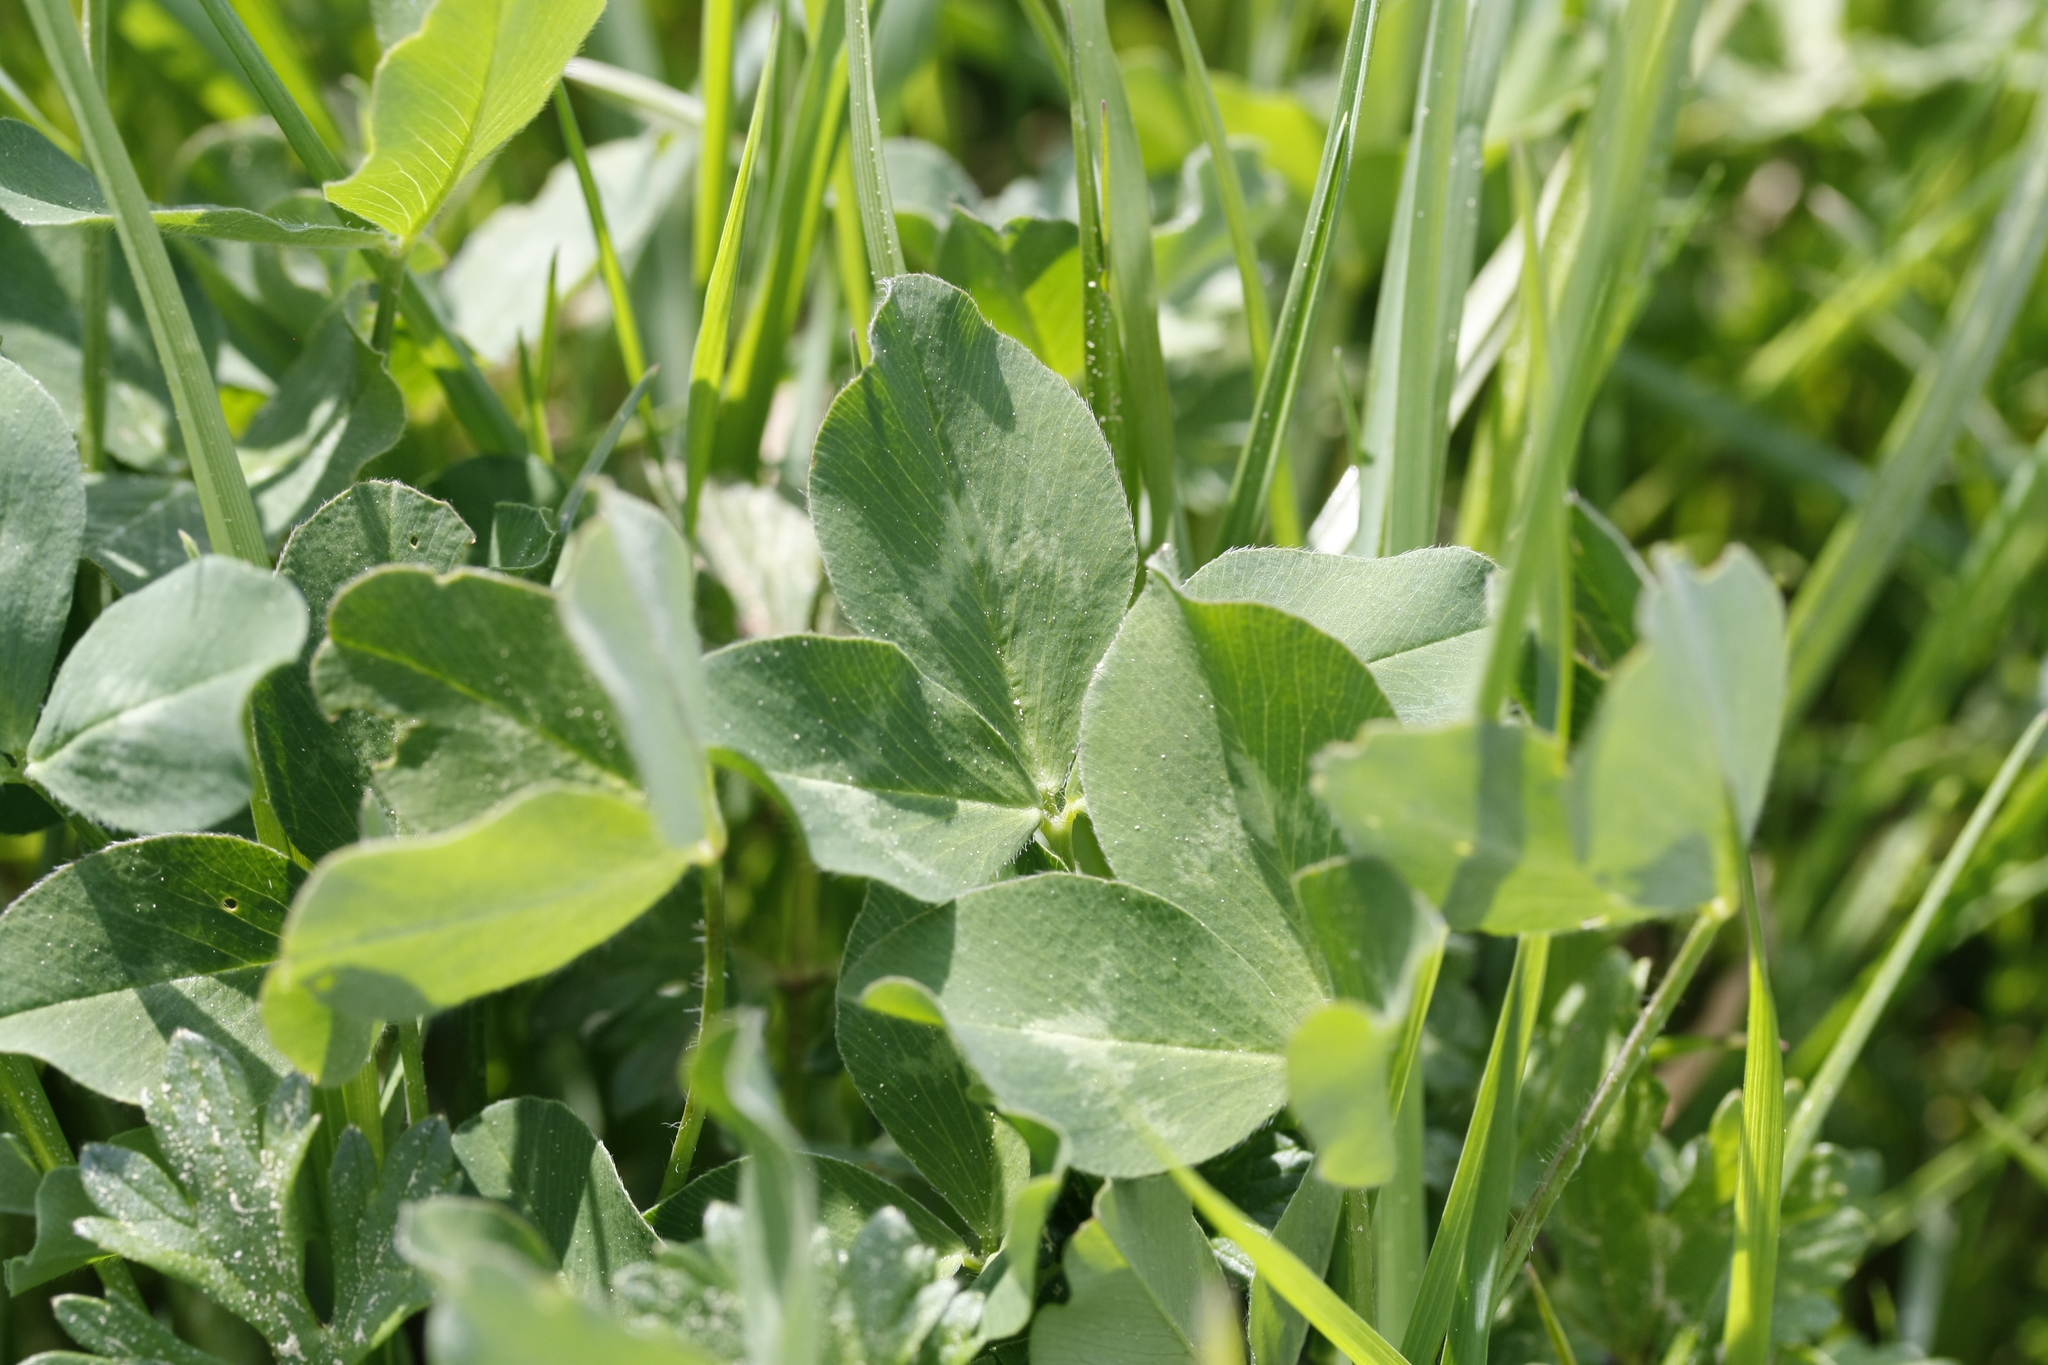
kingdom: Plantae
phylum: Tracheophyta
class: Magnoliopsida
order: Fabales
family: Fabaceae
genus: Trifolium
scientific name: Trifolium pratense
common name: Red clover
